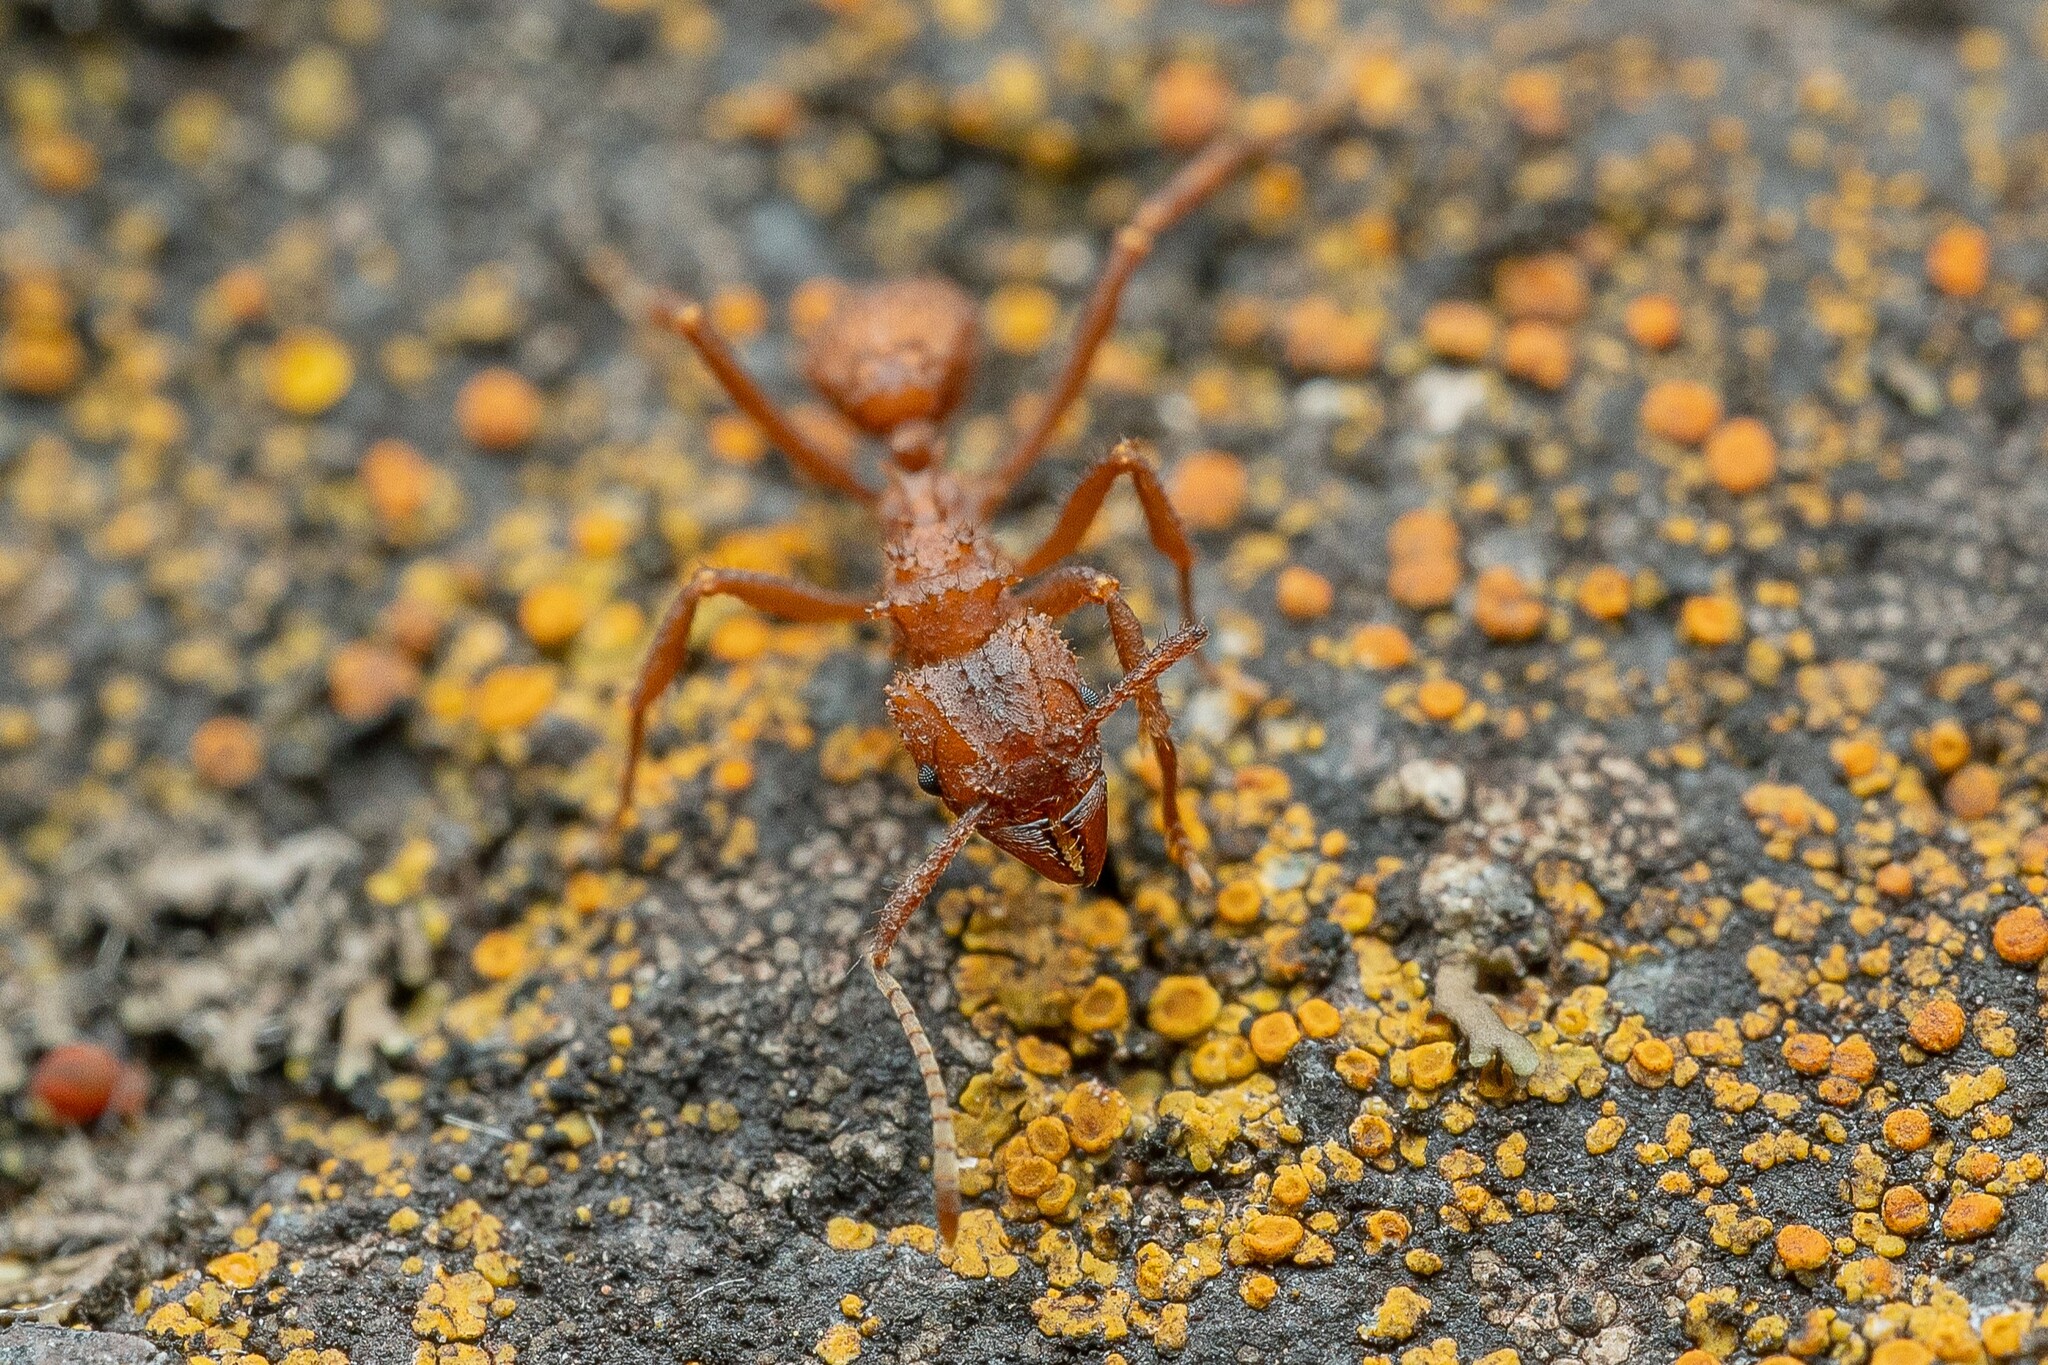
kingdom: Animalia
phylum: Arthropoda
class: Insecta
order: Hymenoptera
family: Formicidae
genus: Trachymyrmex
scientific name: Trachymyrmex arizonensis
